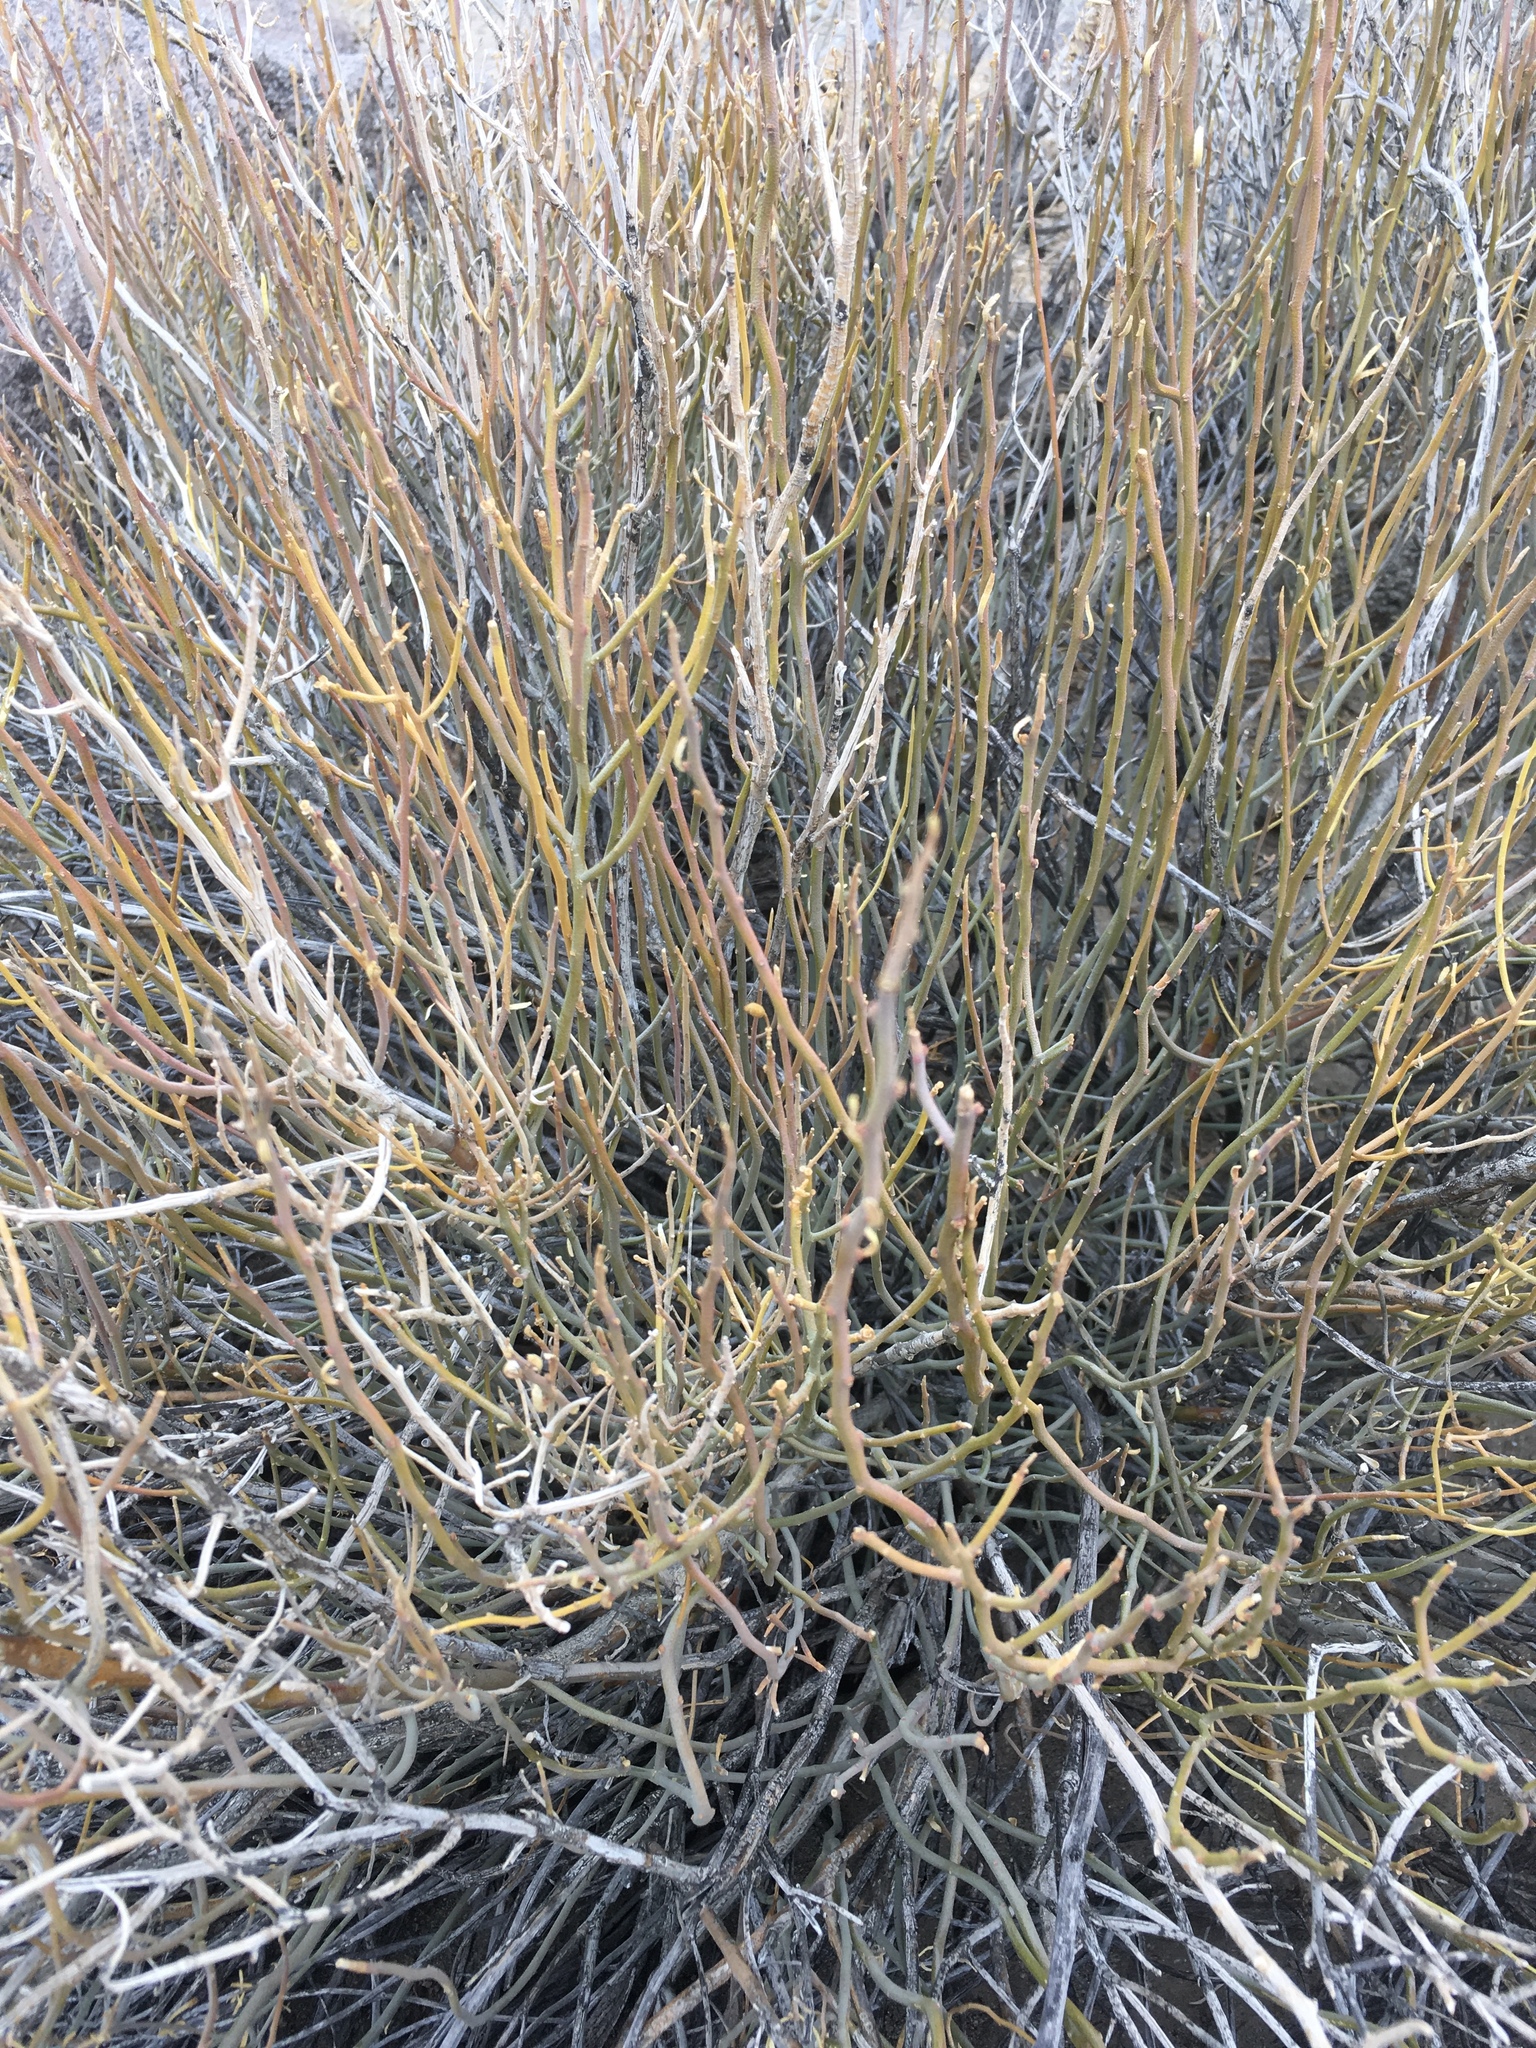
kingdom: Plantae
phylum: Tracheophyta
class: Magnoliopsida
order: Sapindales
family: Rutaceae
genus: Thamnosma
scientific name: Thamnosma montana
